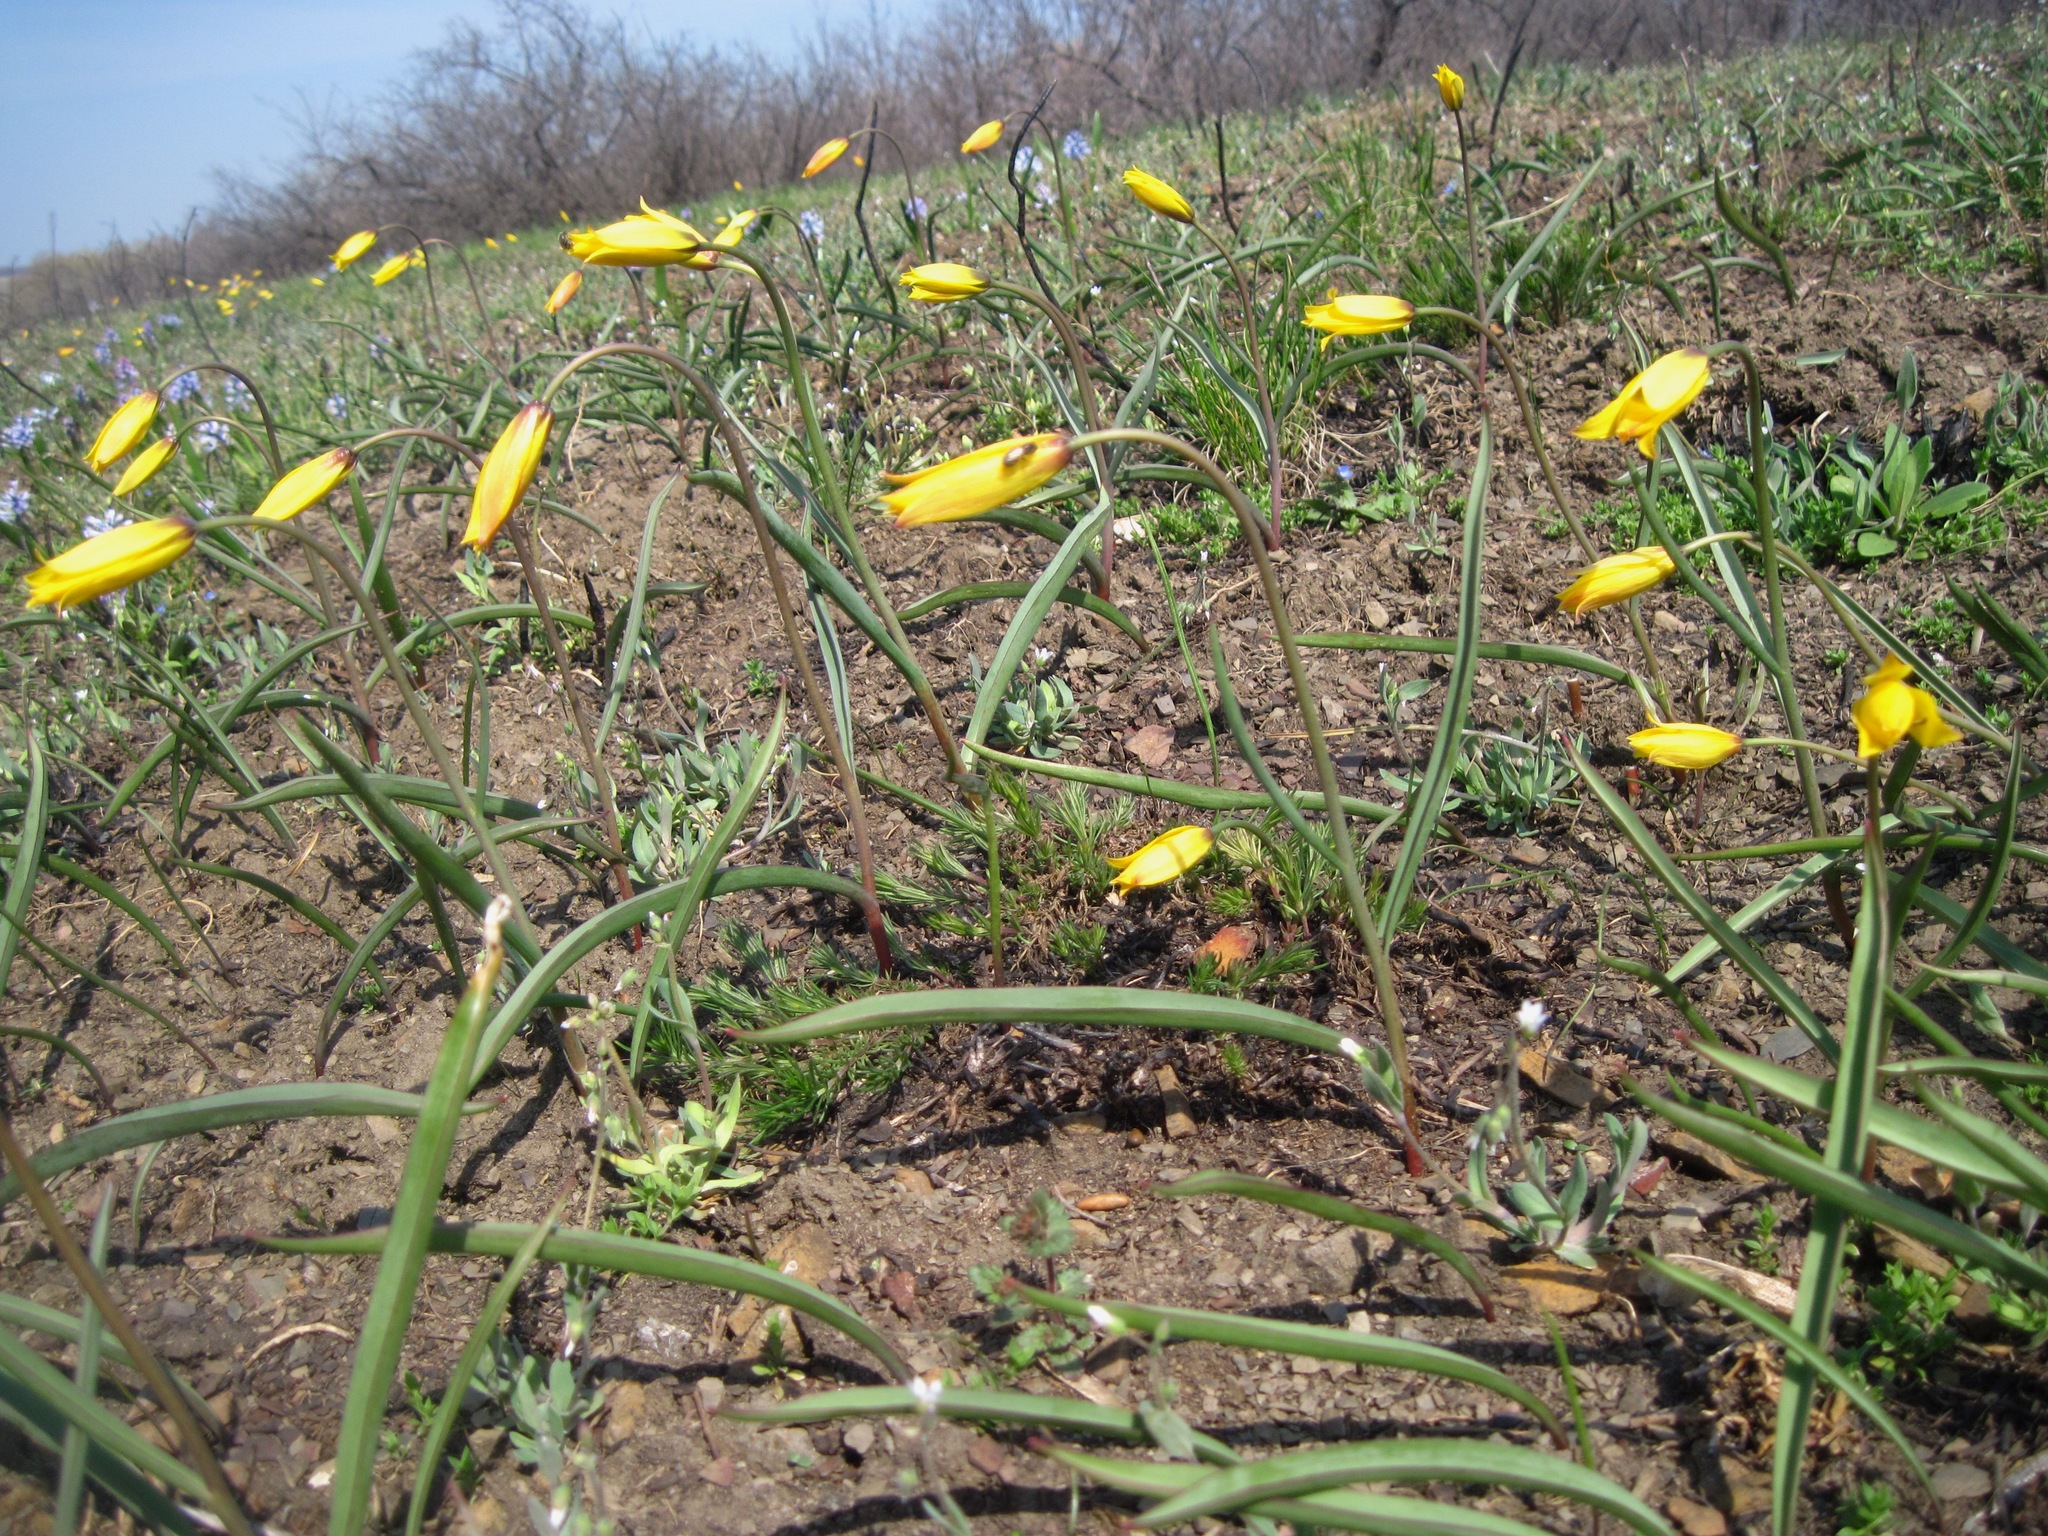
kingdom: Plantae
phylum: Tracheophyta
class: Liliopsida
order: Liliales
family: Liliaceae
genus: Tulipa
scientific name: Tulipa sylvestris
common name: Wild tulip
